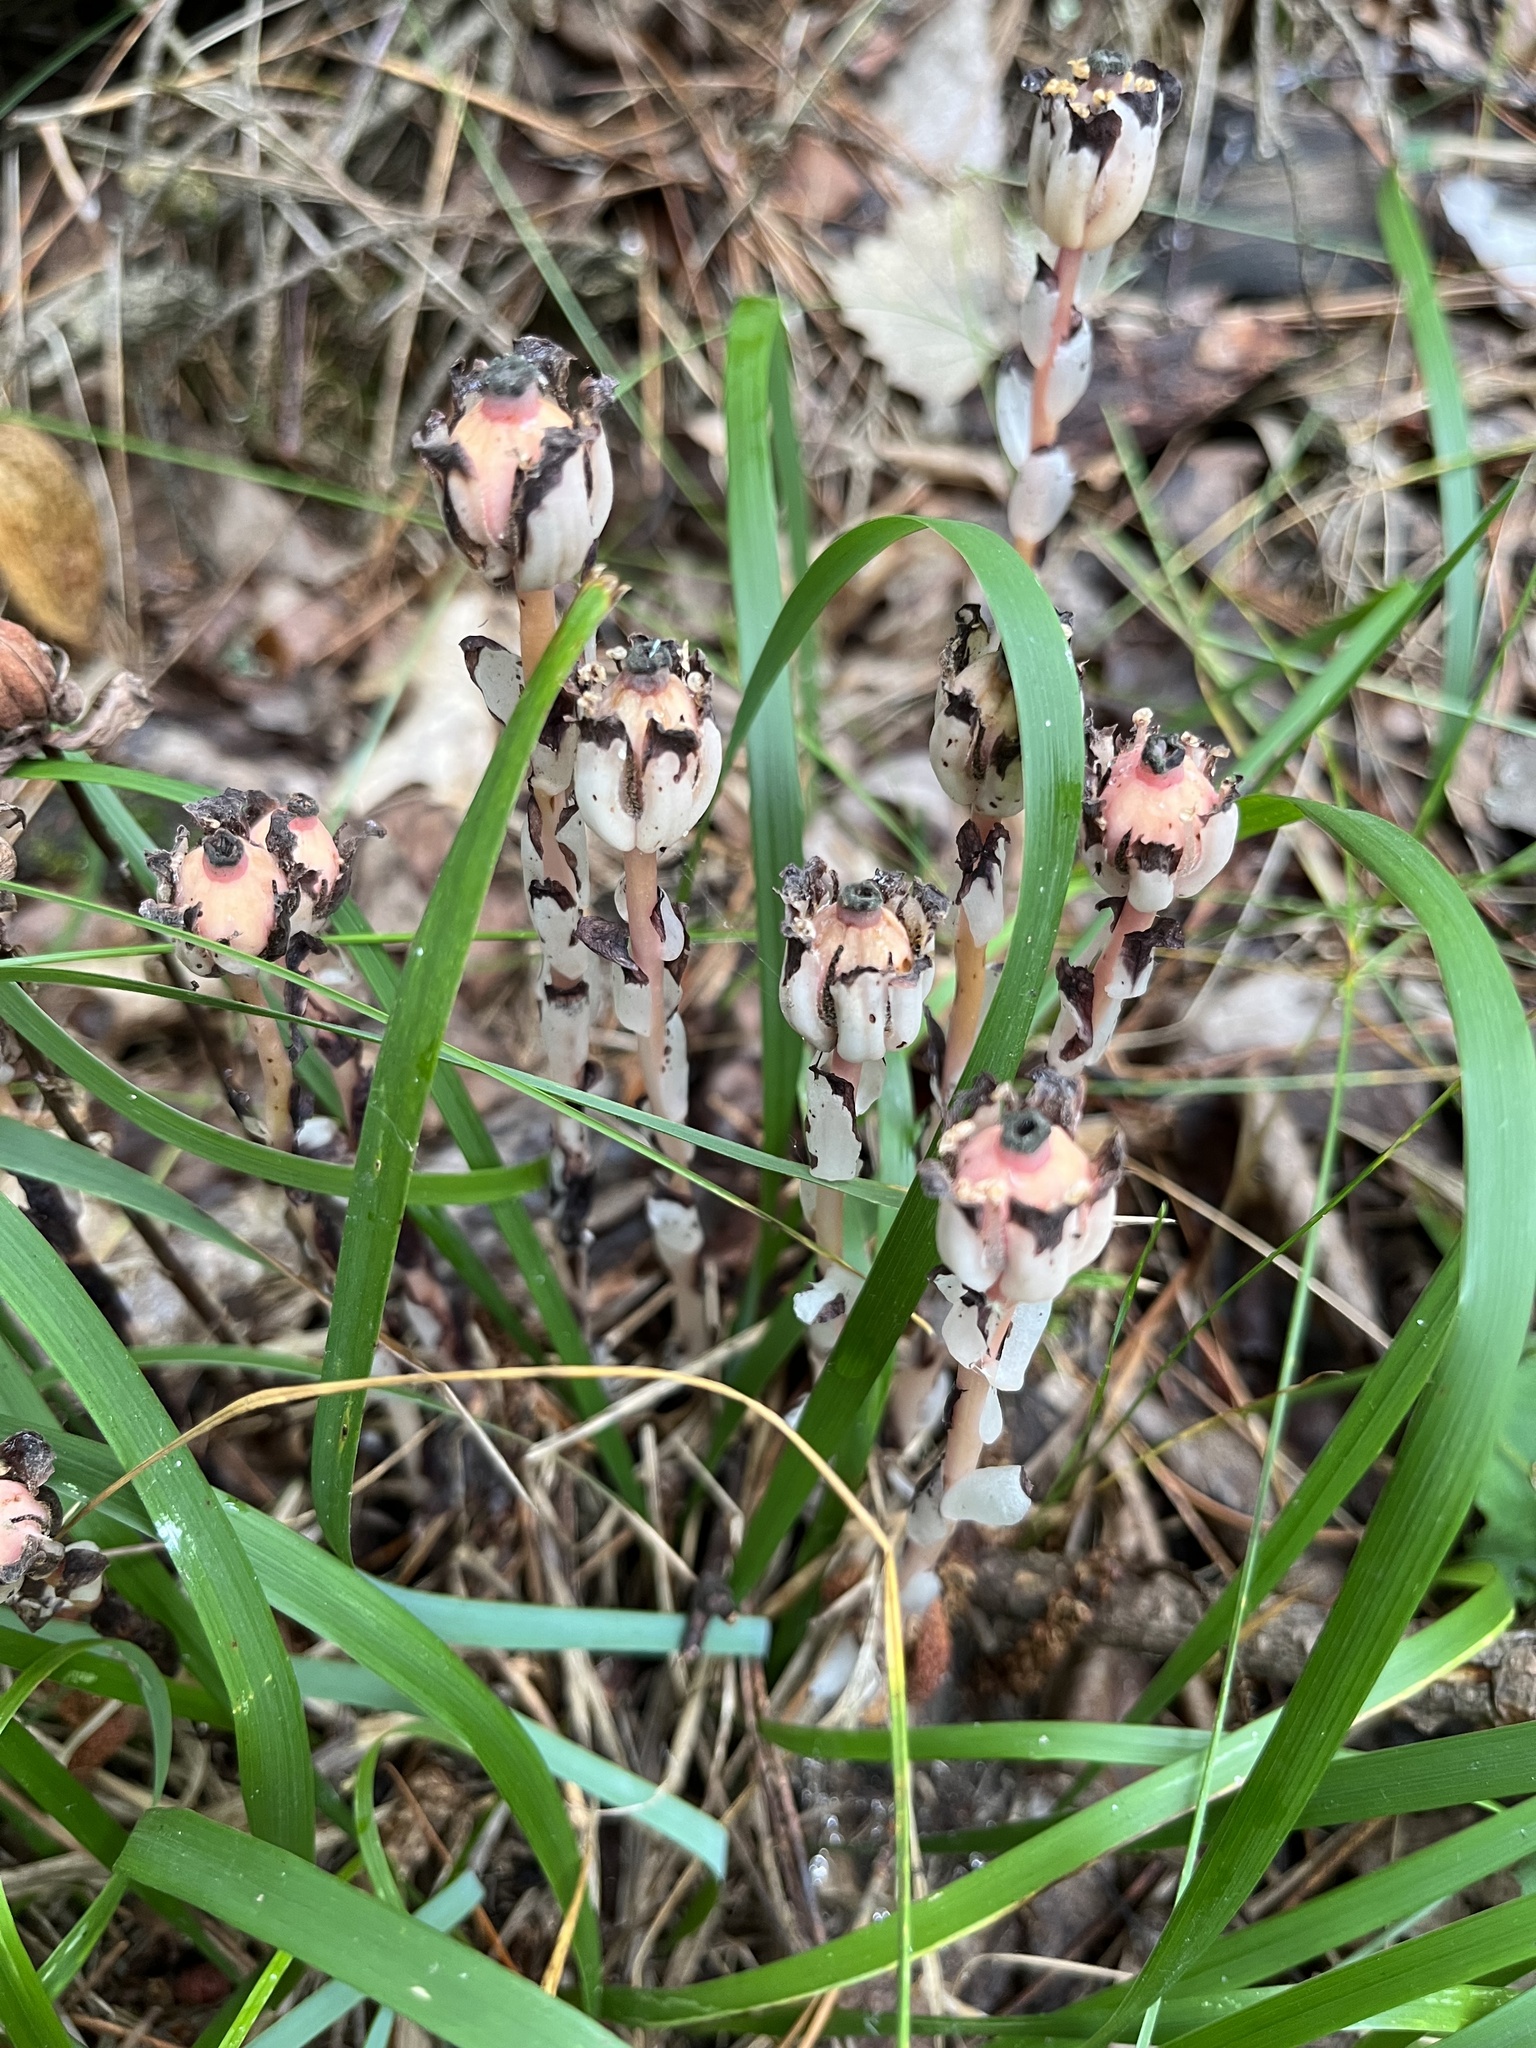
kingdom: Plantae
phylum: Tracheophyta
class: Magnoliopsida
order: Ericales
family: Ericaceae
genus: Monotropa
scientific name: Monotropa uniflora
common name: Convulsion root
